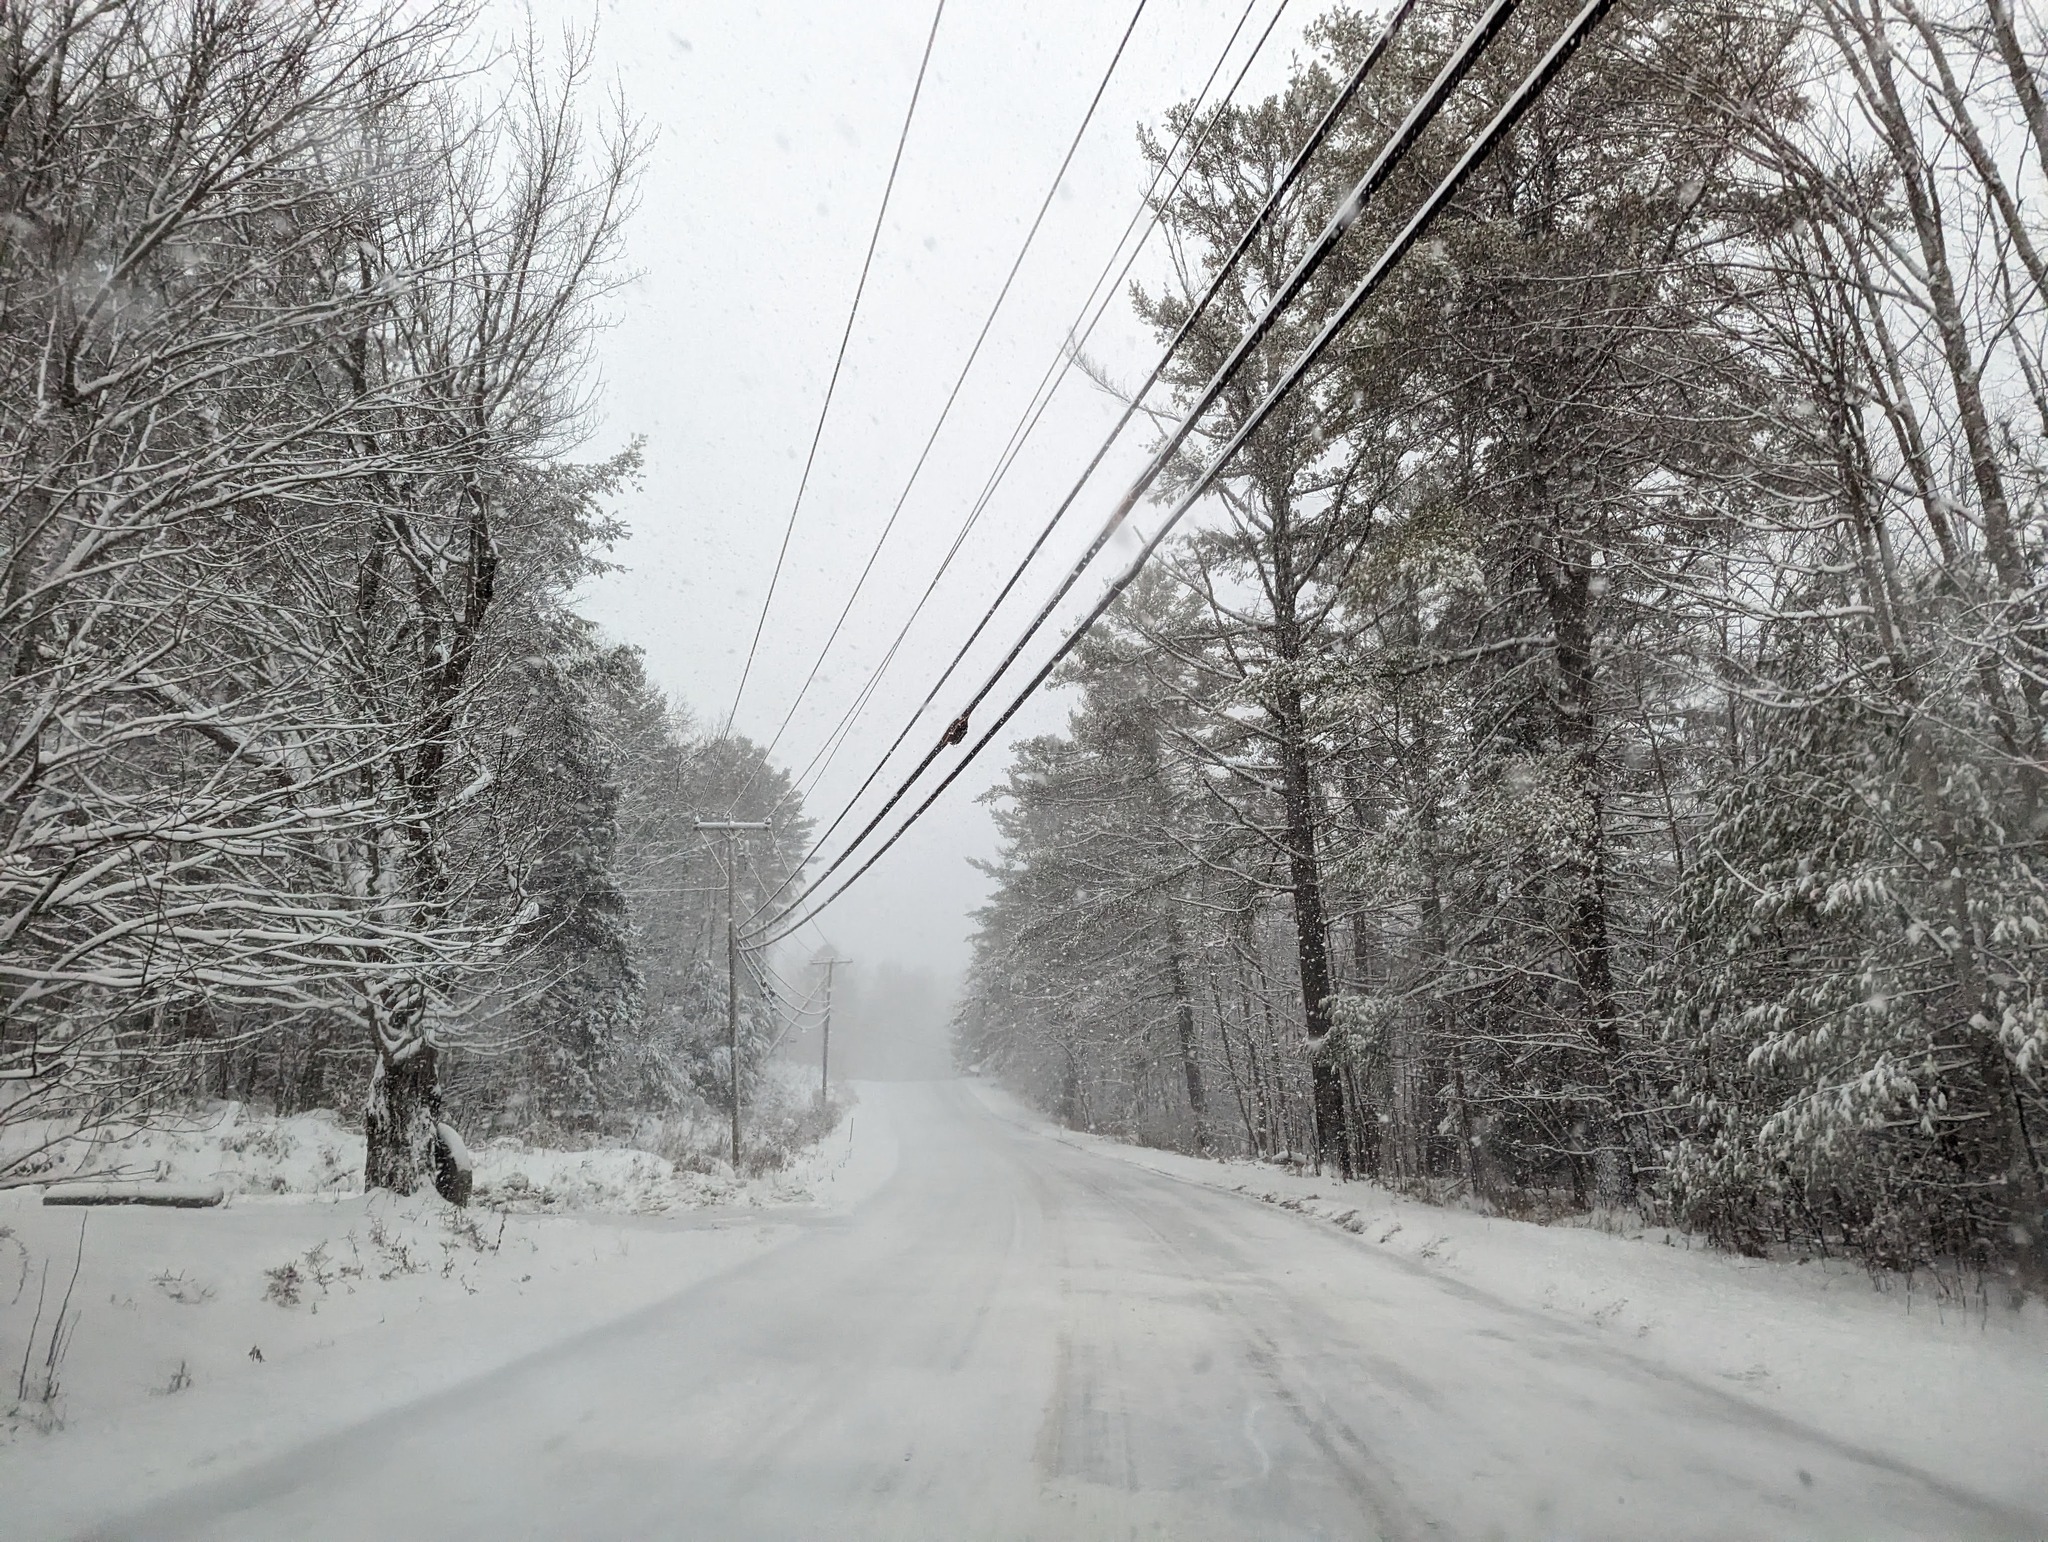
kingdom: Plantae
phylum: Tracheophyta
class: Pinopsida
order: Pinales
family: Pinaceae
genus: Pinus
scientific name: Pinus strobus
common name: Weymouth pine
